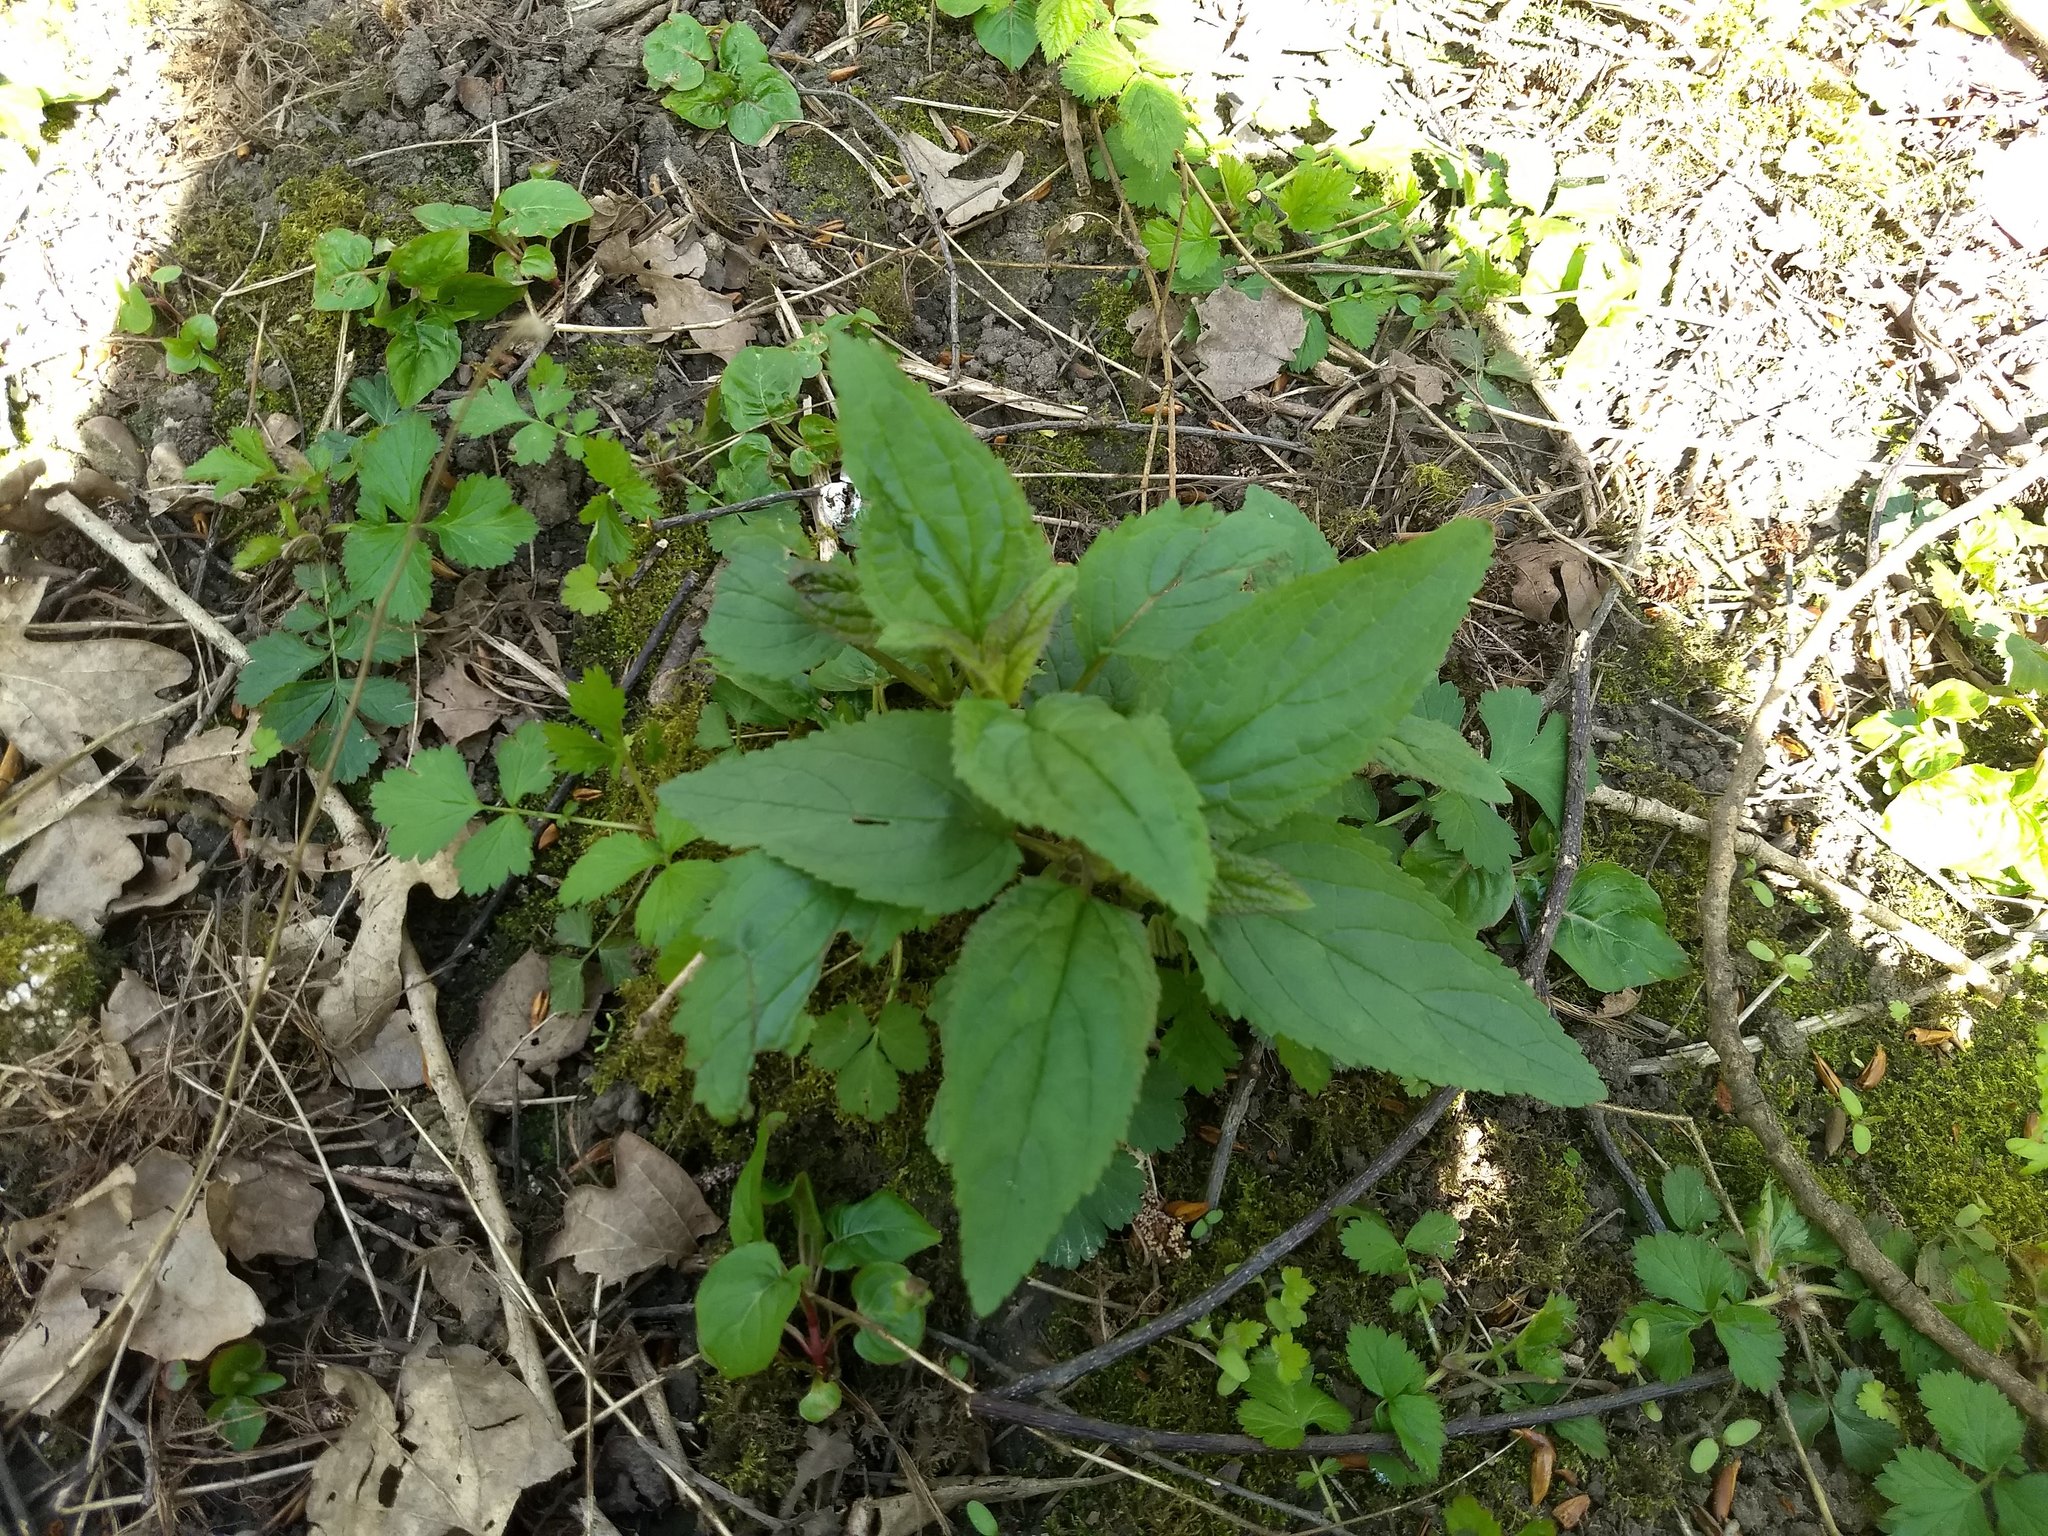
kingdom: Plantae
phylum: Tracheophyta
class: Magnoliopsida
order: Lamiales
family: Scrophulariaceae
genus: Scrophularia
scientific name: Scrophularia nodosa
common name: Common figwort
